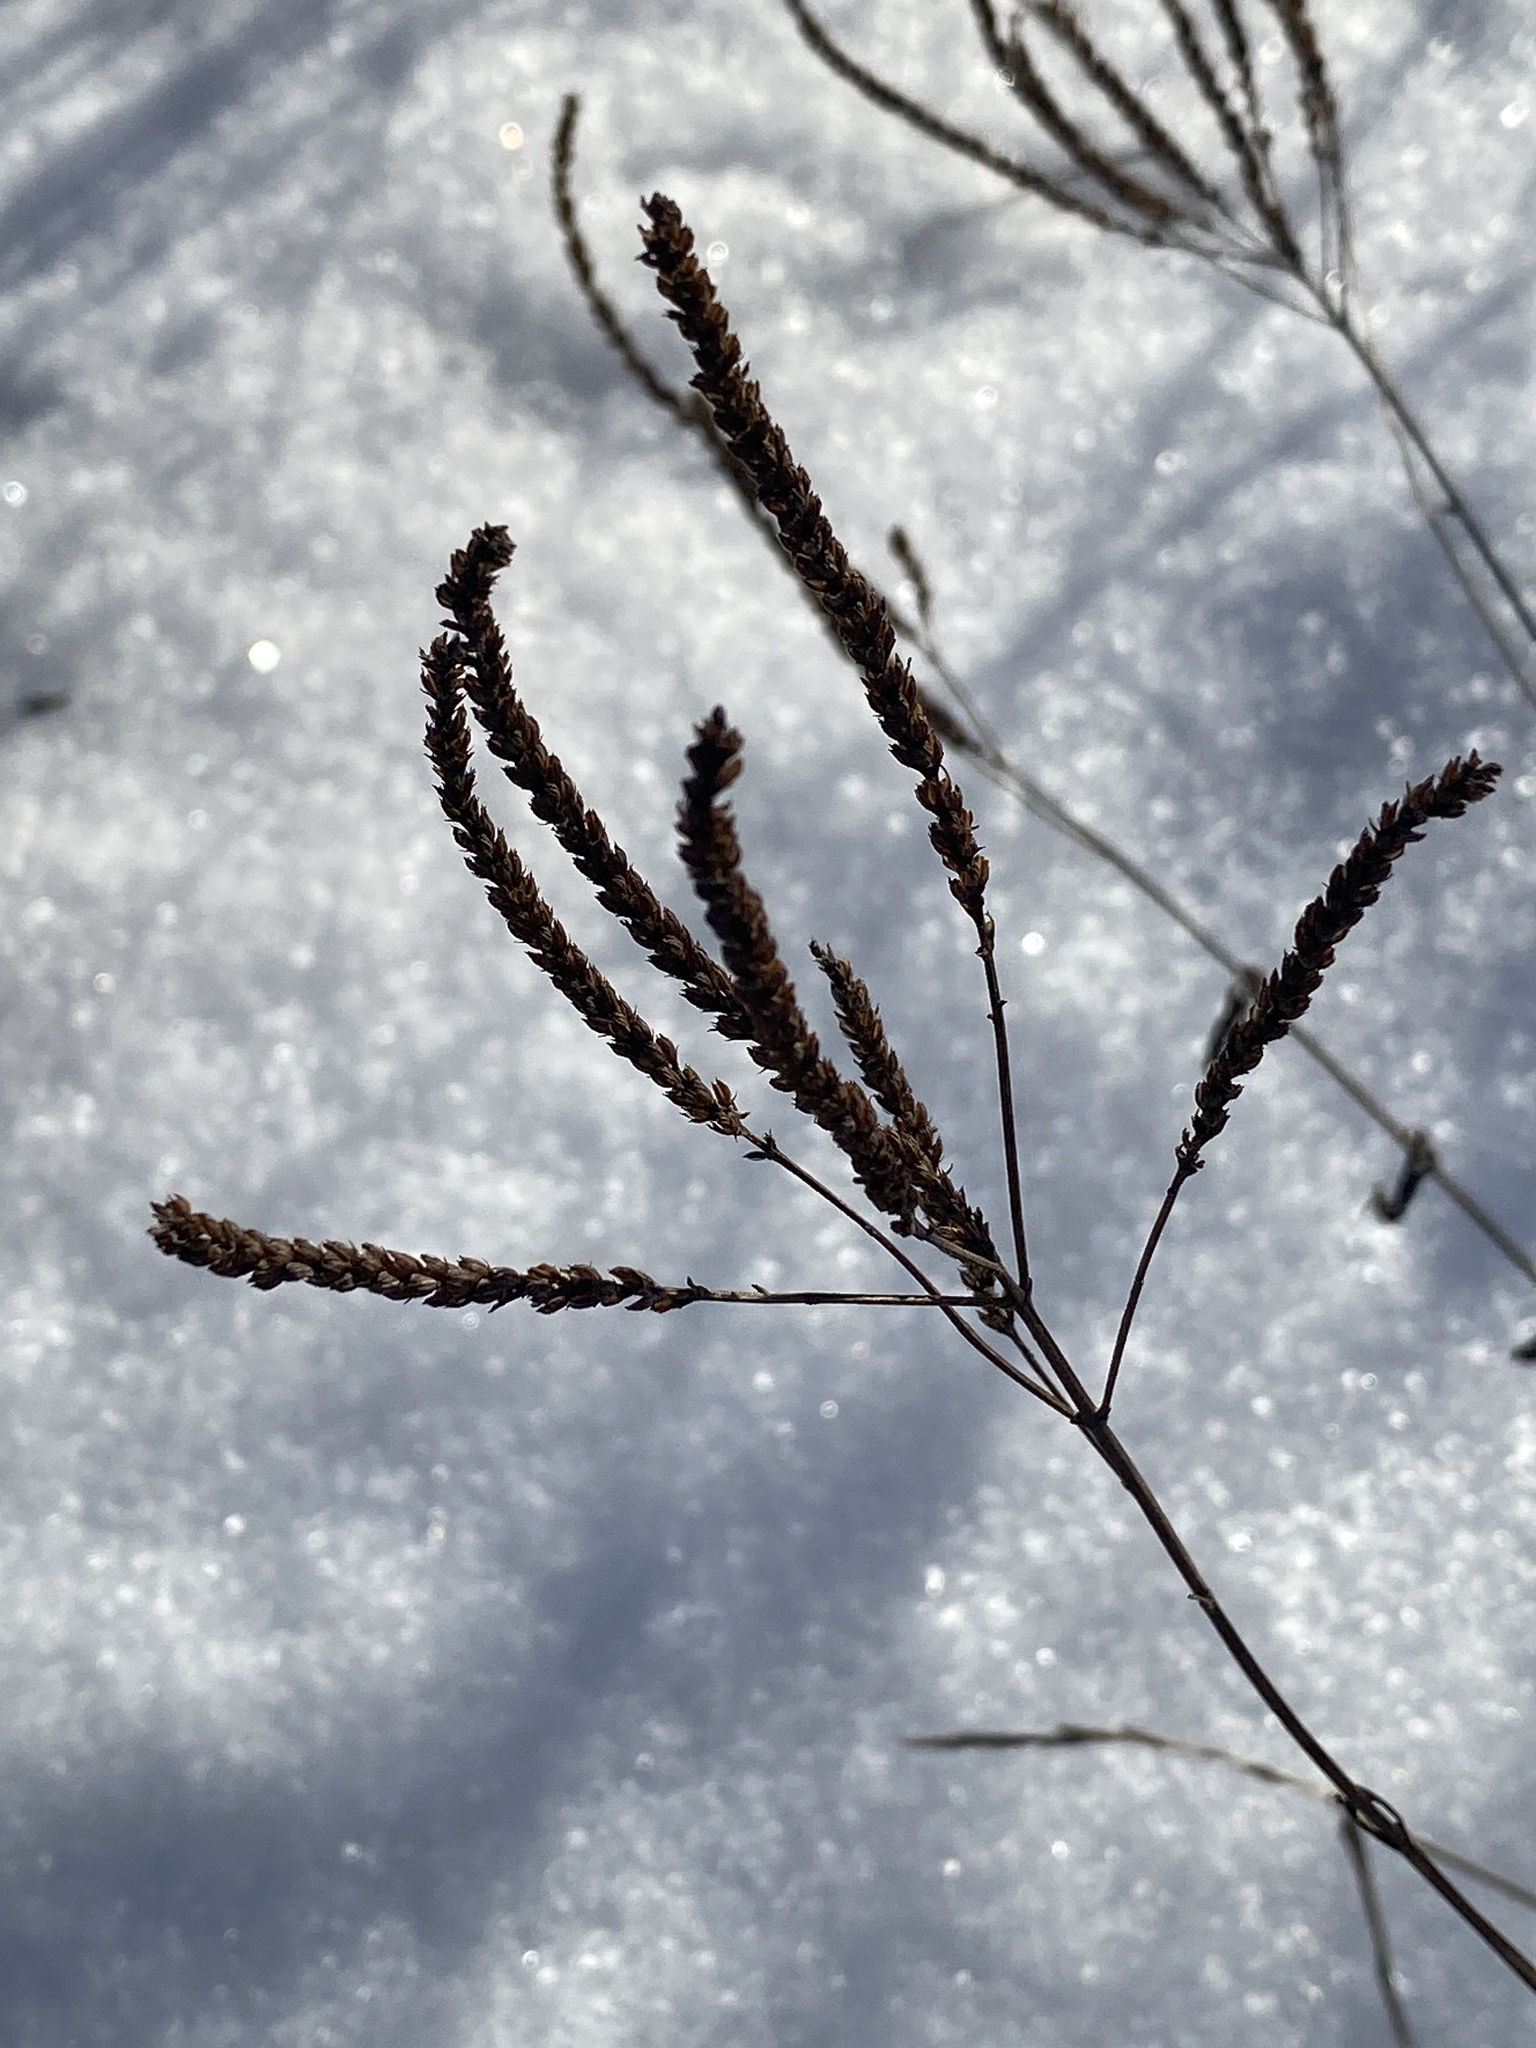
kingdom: Plantae
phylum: Tracheophyta
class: Magnoliopsida
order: Lamiales
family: Verbenaceae
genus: Verbena
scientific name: Verbena hastata
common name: American blue vervain
